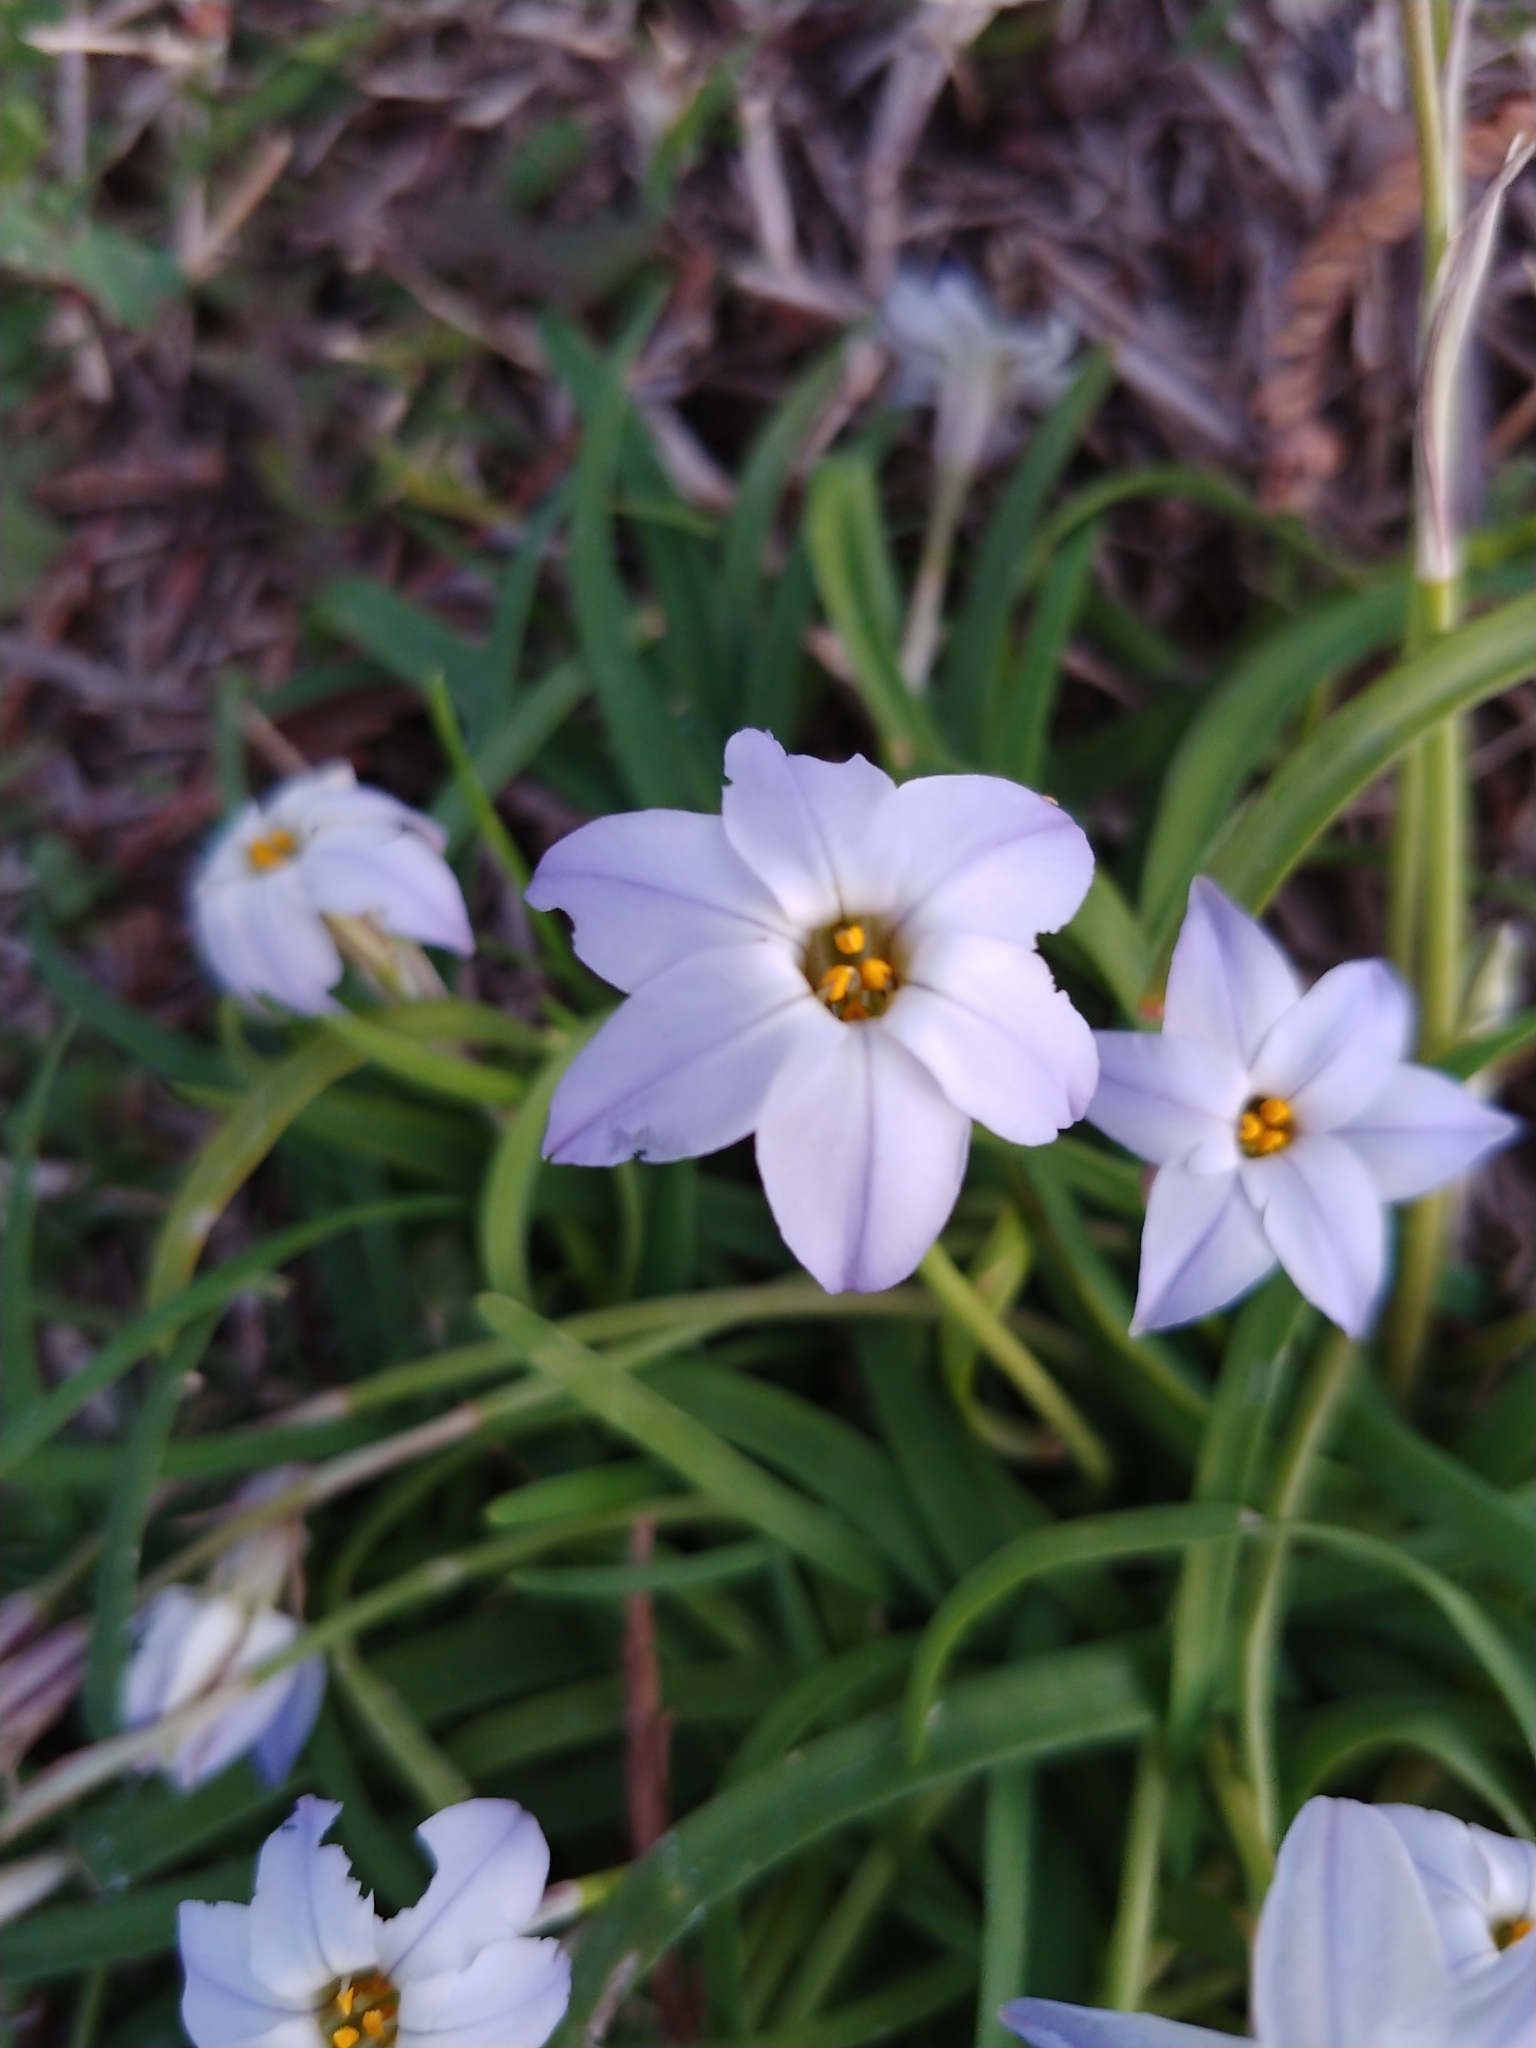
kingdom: Plantae
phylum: Tracheophyta
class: Liliopsida
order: Asparagales
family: Amaryllidaceae
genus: Ipheion
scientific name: Ipheion uniflorum
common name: Spring starflower
